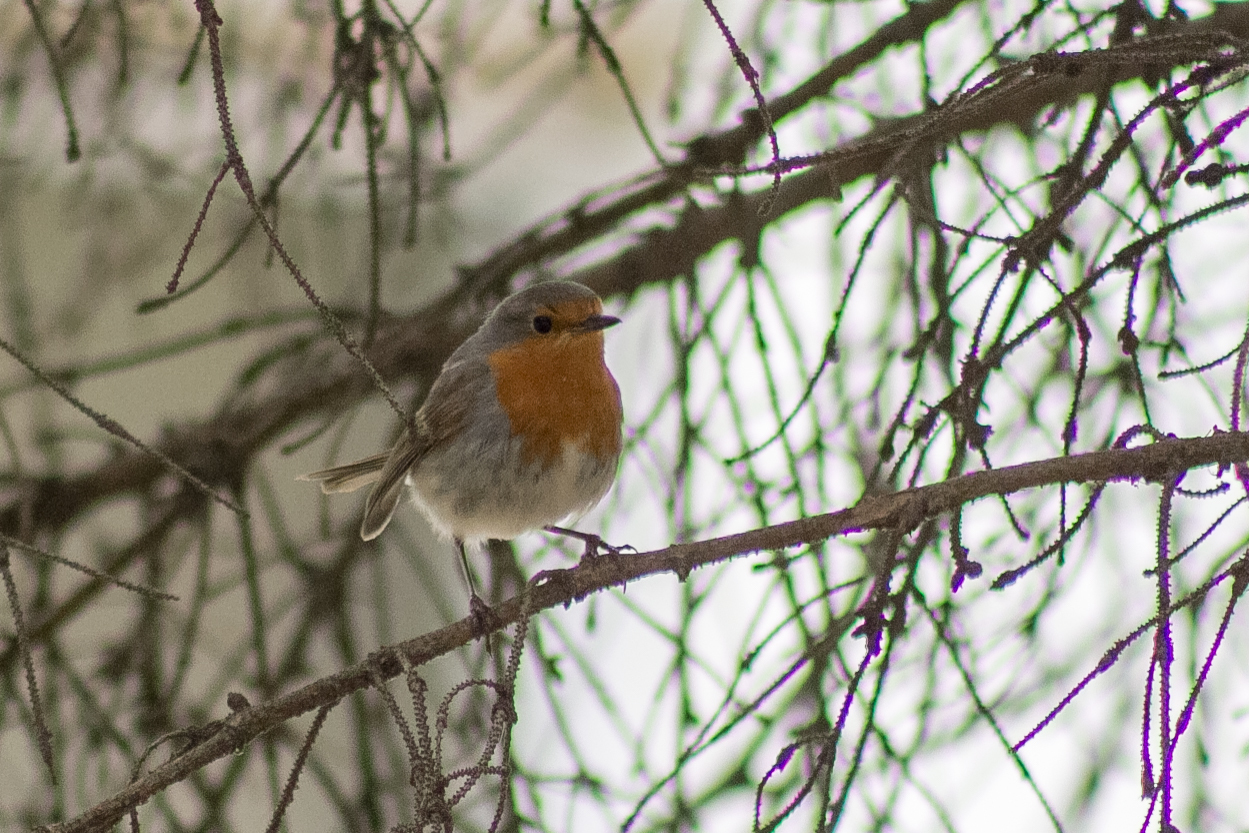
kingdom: Animalia
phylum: Chordata
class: Aves
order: Passeriformes
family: Muscicapidae
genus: Erithacus
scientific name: Erithacus rubecula
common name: European robin
